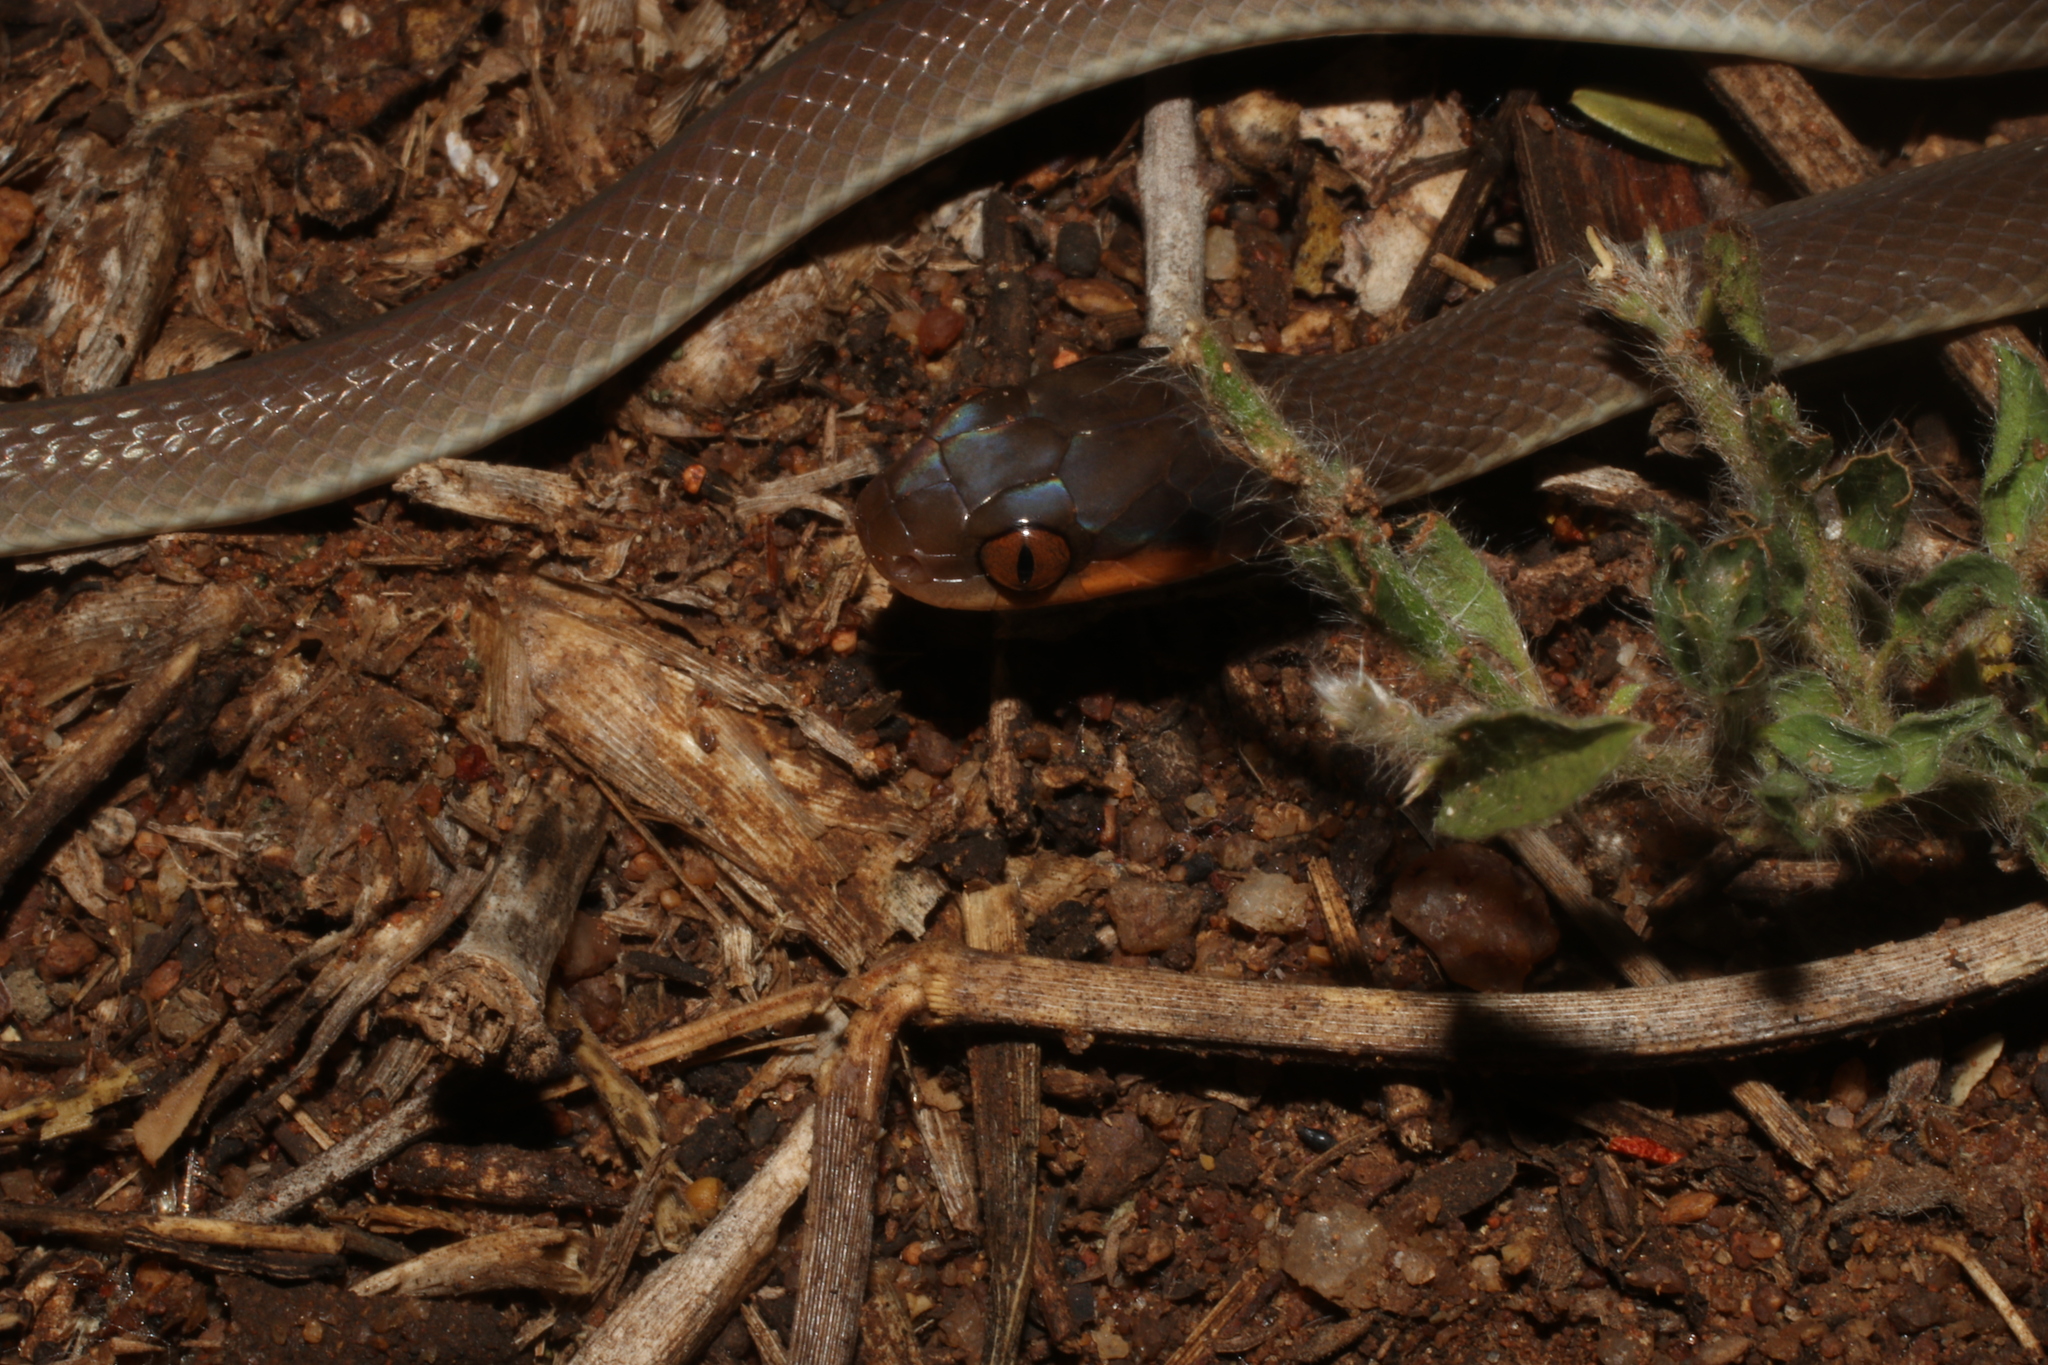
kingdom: Animalia
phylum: Chordata
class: Squamata
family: Colubridae
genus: Crotaphopeltis
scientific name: Crotaphopeltis hotamboeia
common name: Red-lipped snake
